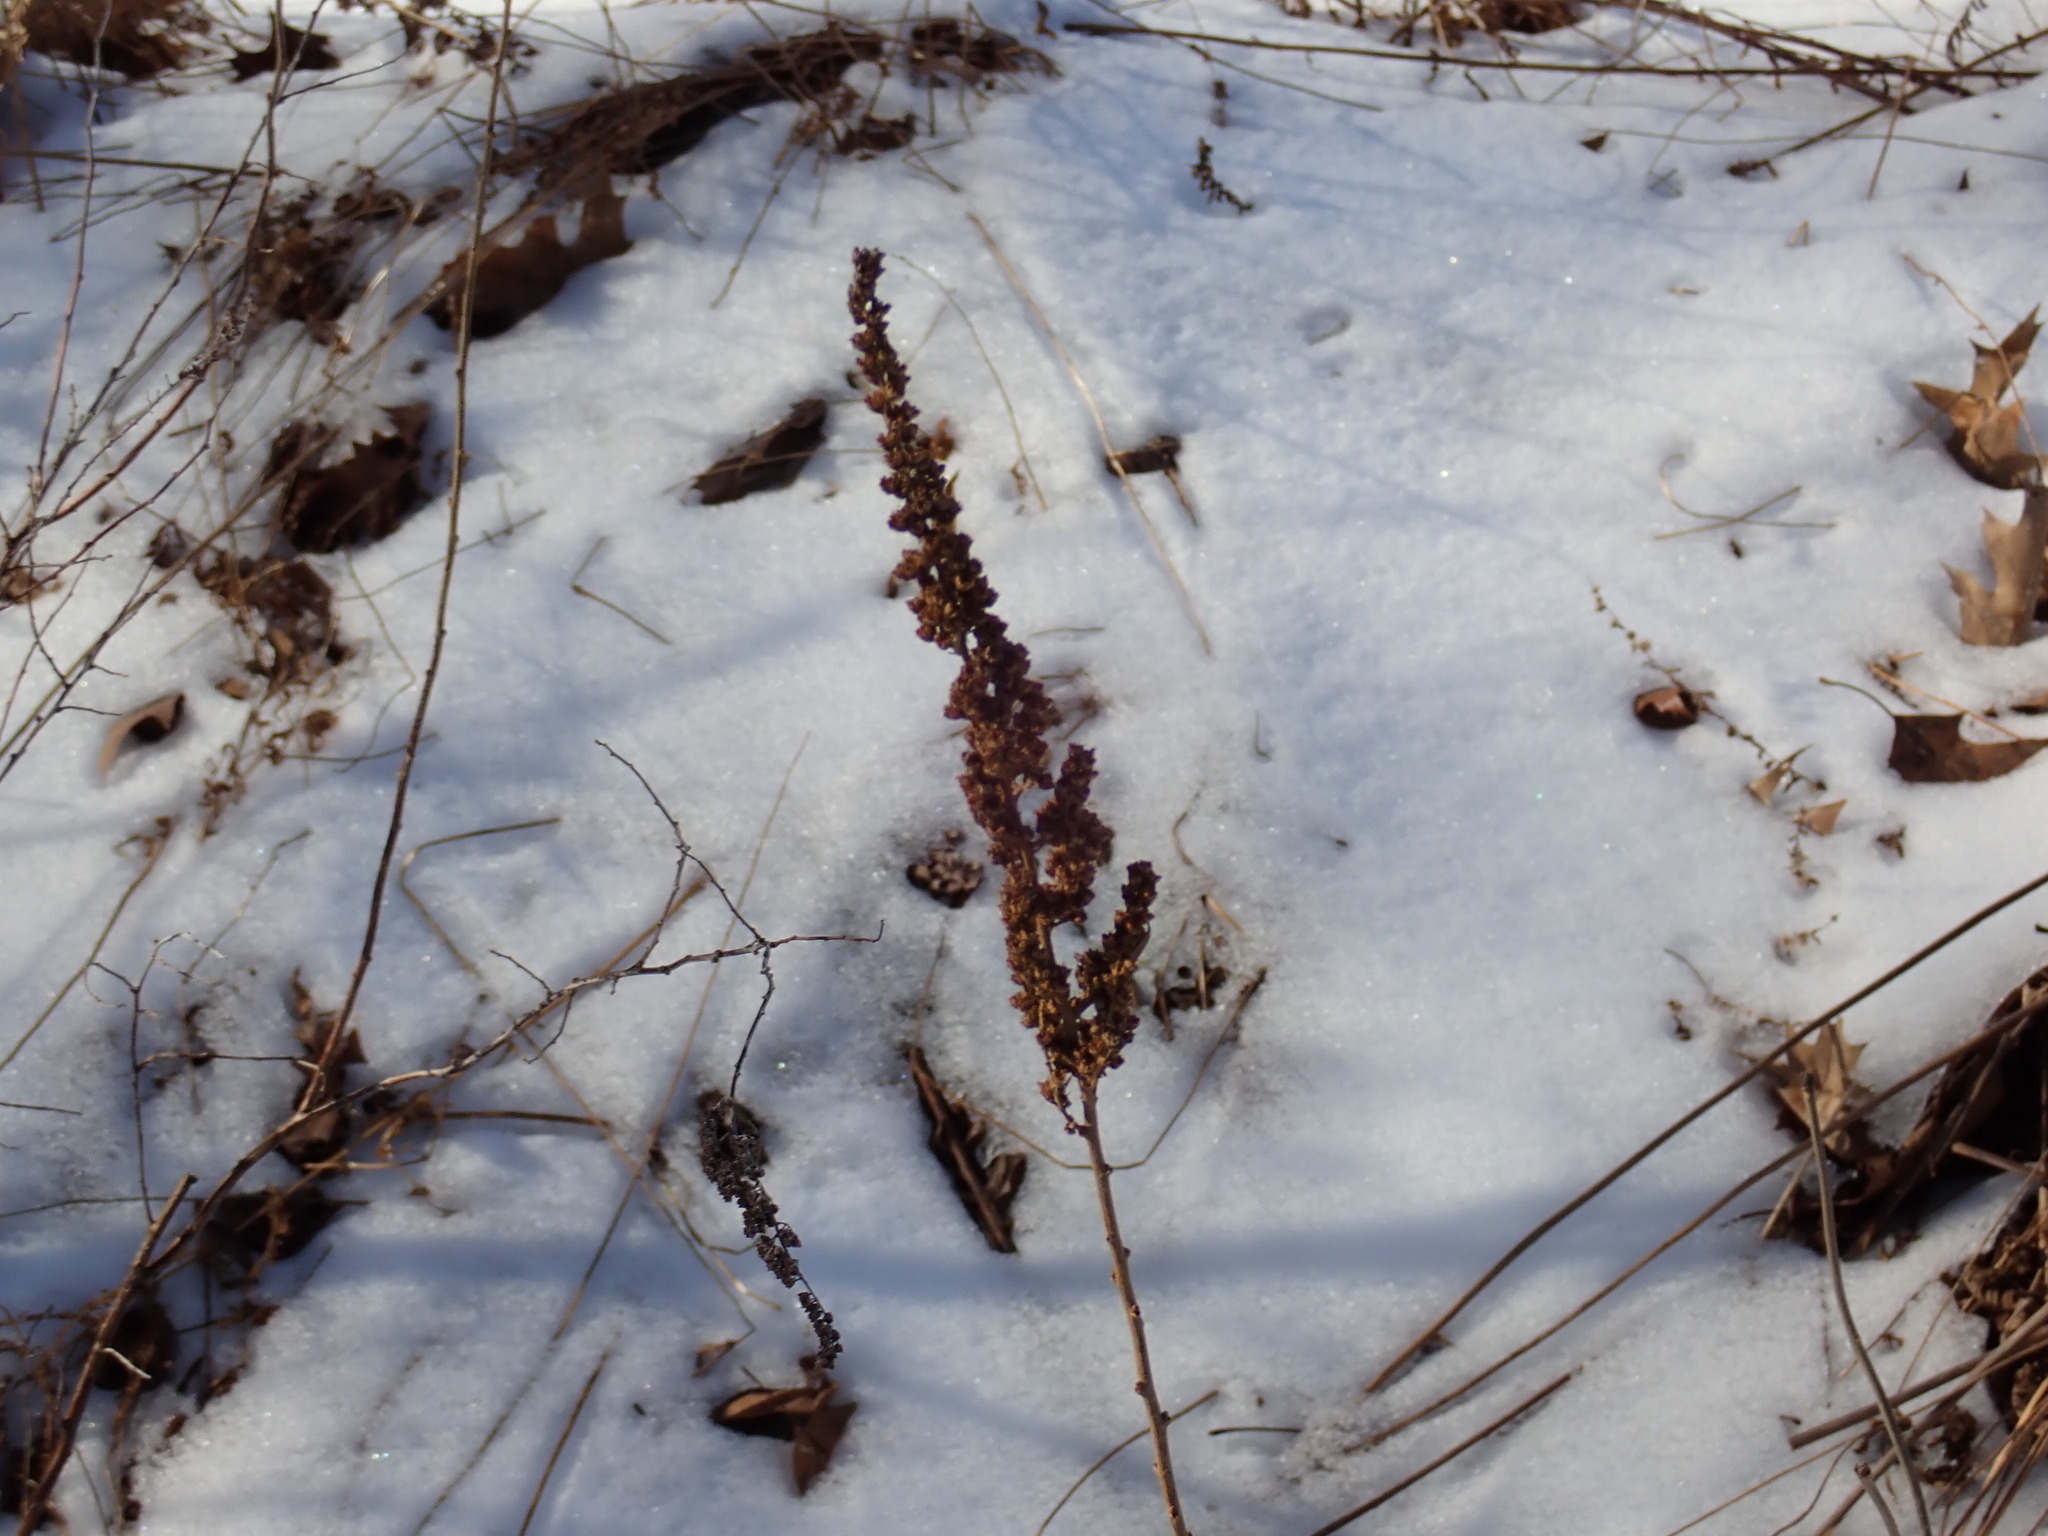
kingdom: Plantae
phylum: Tracheophyta
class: Magnoliopsida
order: Rosales
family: Rosaceae
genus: Spiraea
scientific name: Spiraea tomentosa
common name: Hardhack
